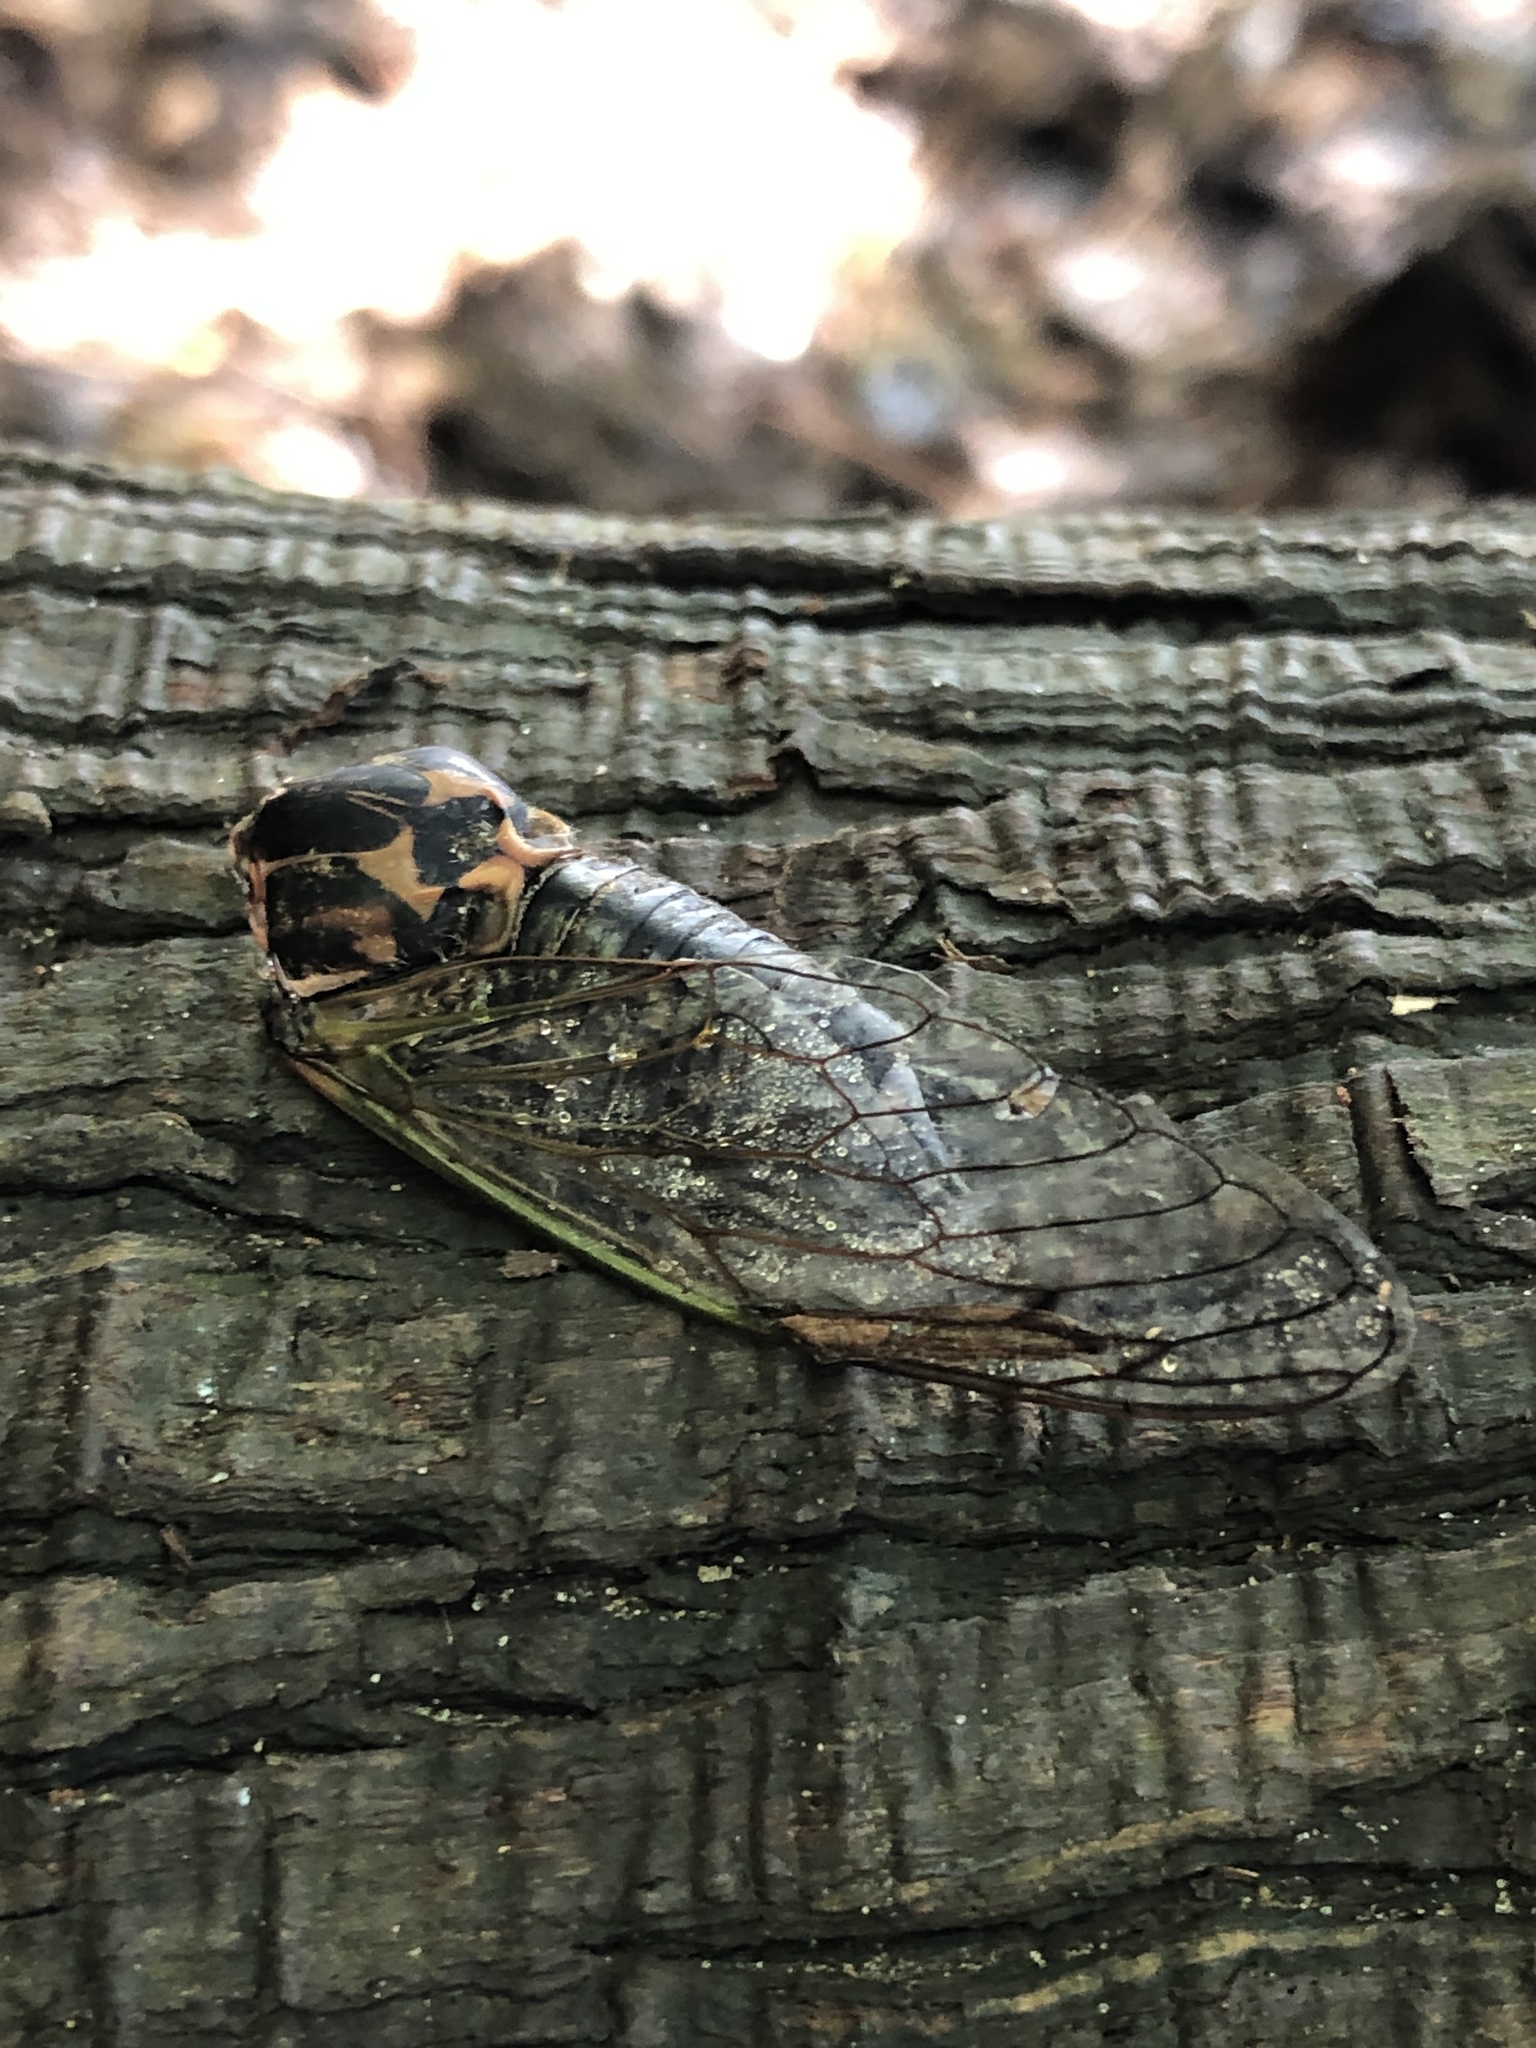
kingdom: Animalia
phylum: Arthropoda
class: Insecta
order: Hemiptera
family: Cicadidae
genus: Neotibicen
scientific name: Neotibicen canicularis
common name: God-day cicada
